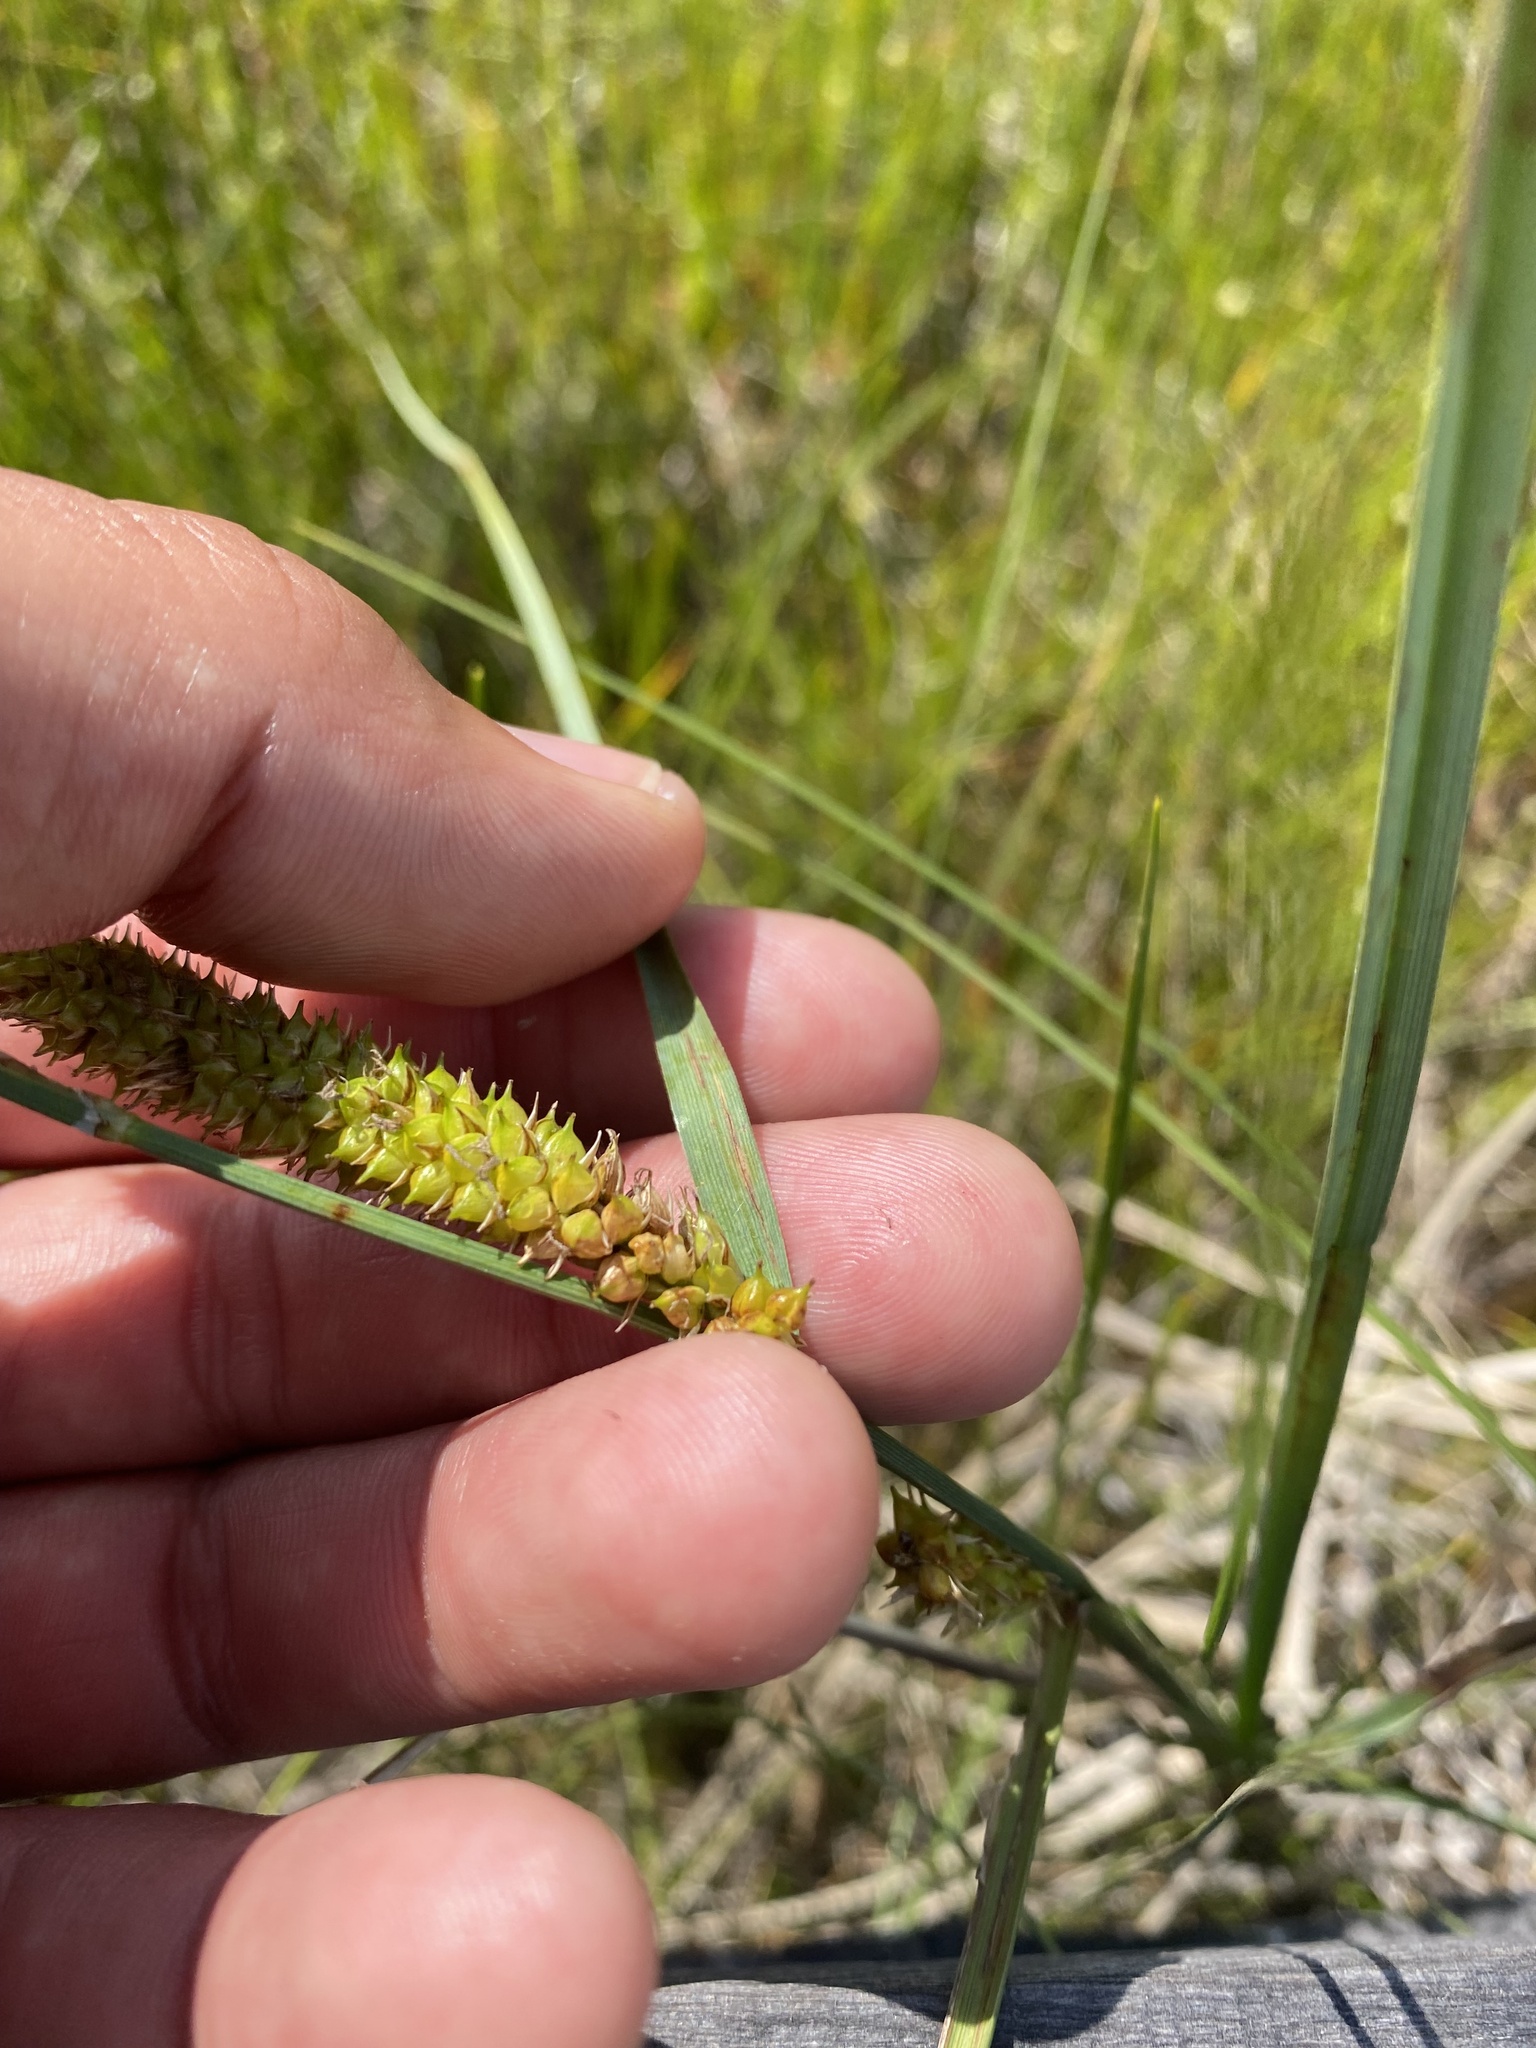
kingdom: Plantae
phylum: Tracheophyta
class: Liliopsida
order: Poales
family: Cyperaceae
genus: Carex
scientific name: Carex rostrata
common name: Bottle sedge
